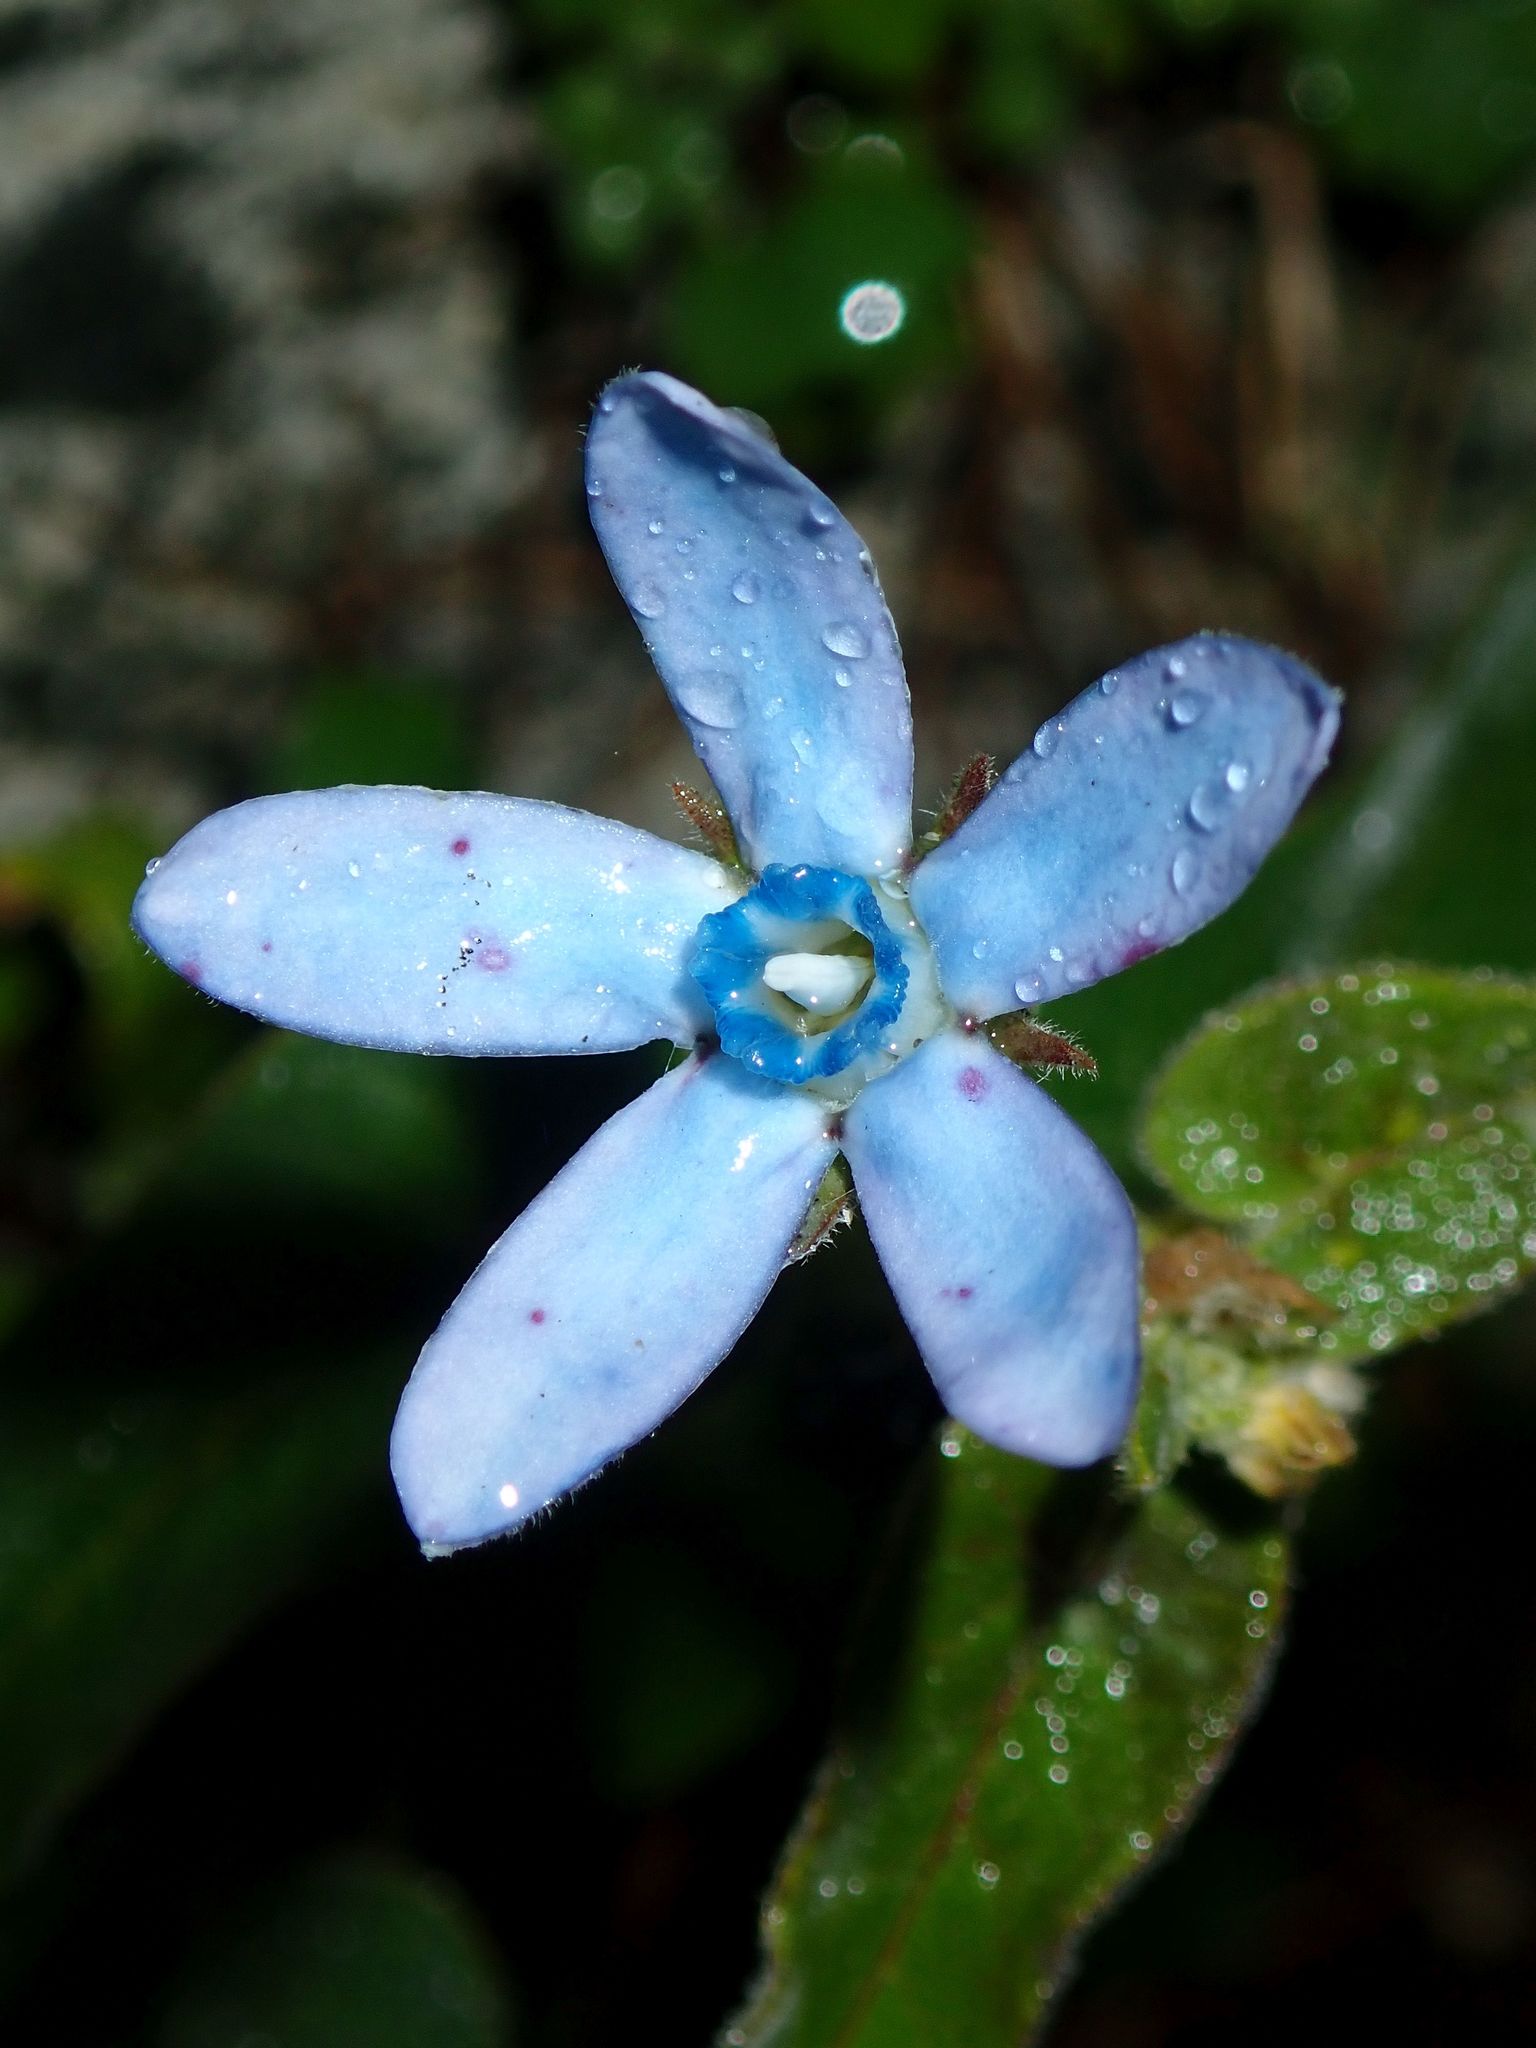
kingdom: Plantae
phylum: Tracheophyta
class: Magnoliopsida
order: Gentianales
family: Apocynaceae
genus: Oxypetalum
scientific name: Oxypetalum coeruleum
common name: Southern star
